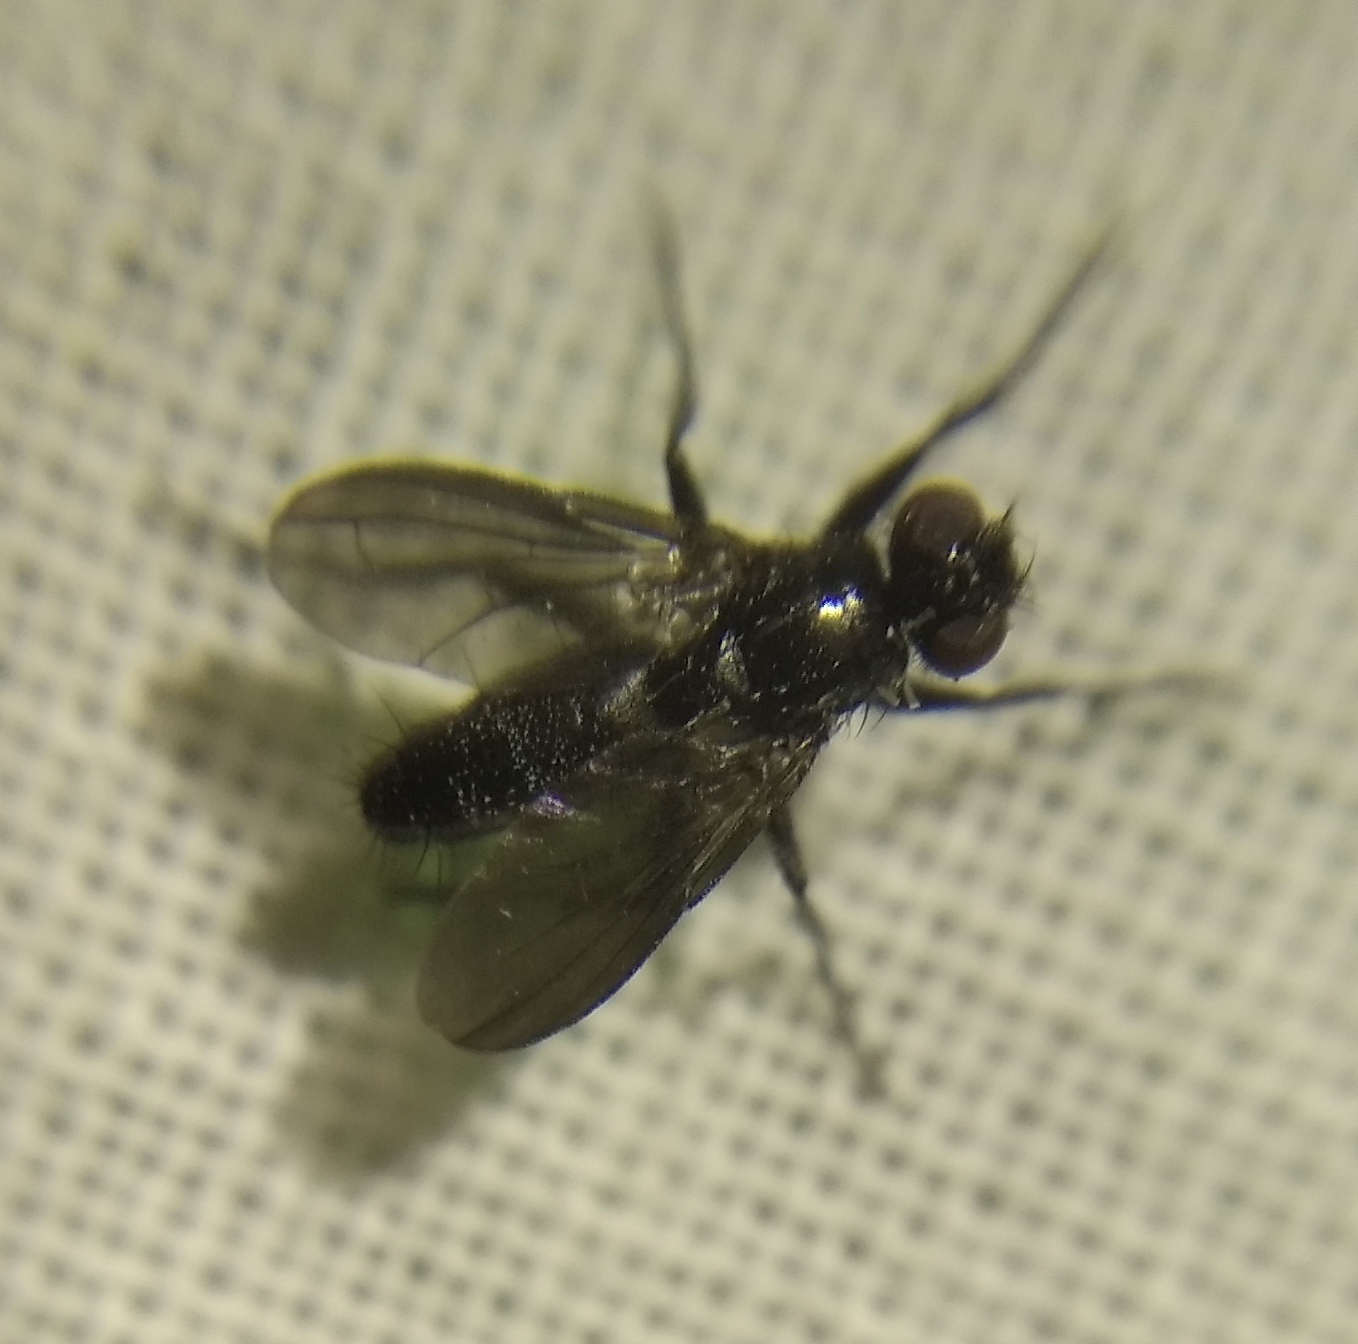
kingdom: Animalia
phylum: Arthropoda
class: Insecta
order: Diptera
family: Calliphoridae
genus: Melanophora
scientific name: Melanophora roralis
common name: Smoky-winged woodlouse-fly
